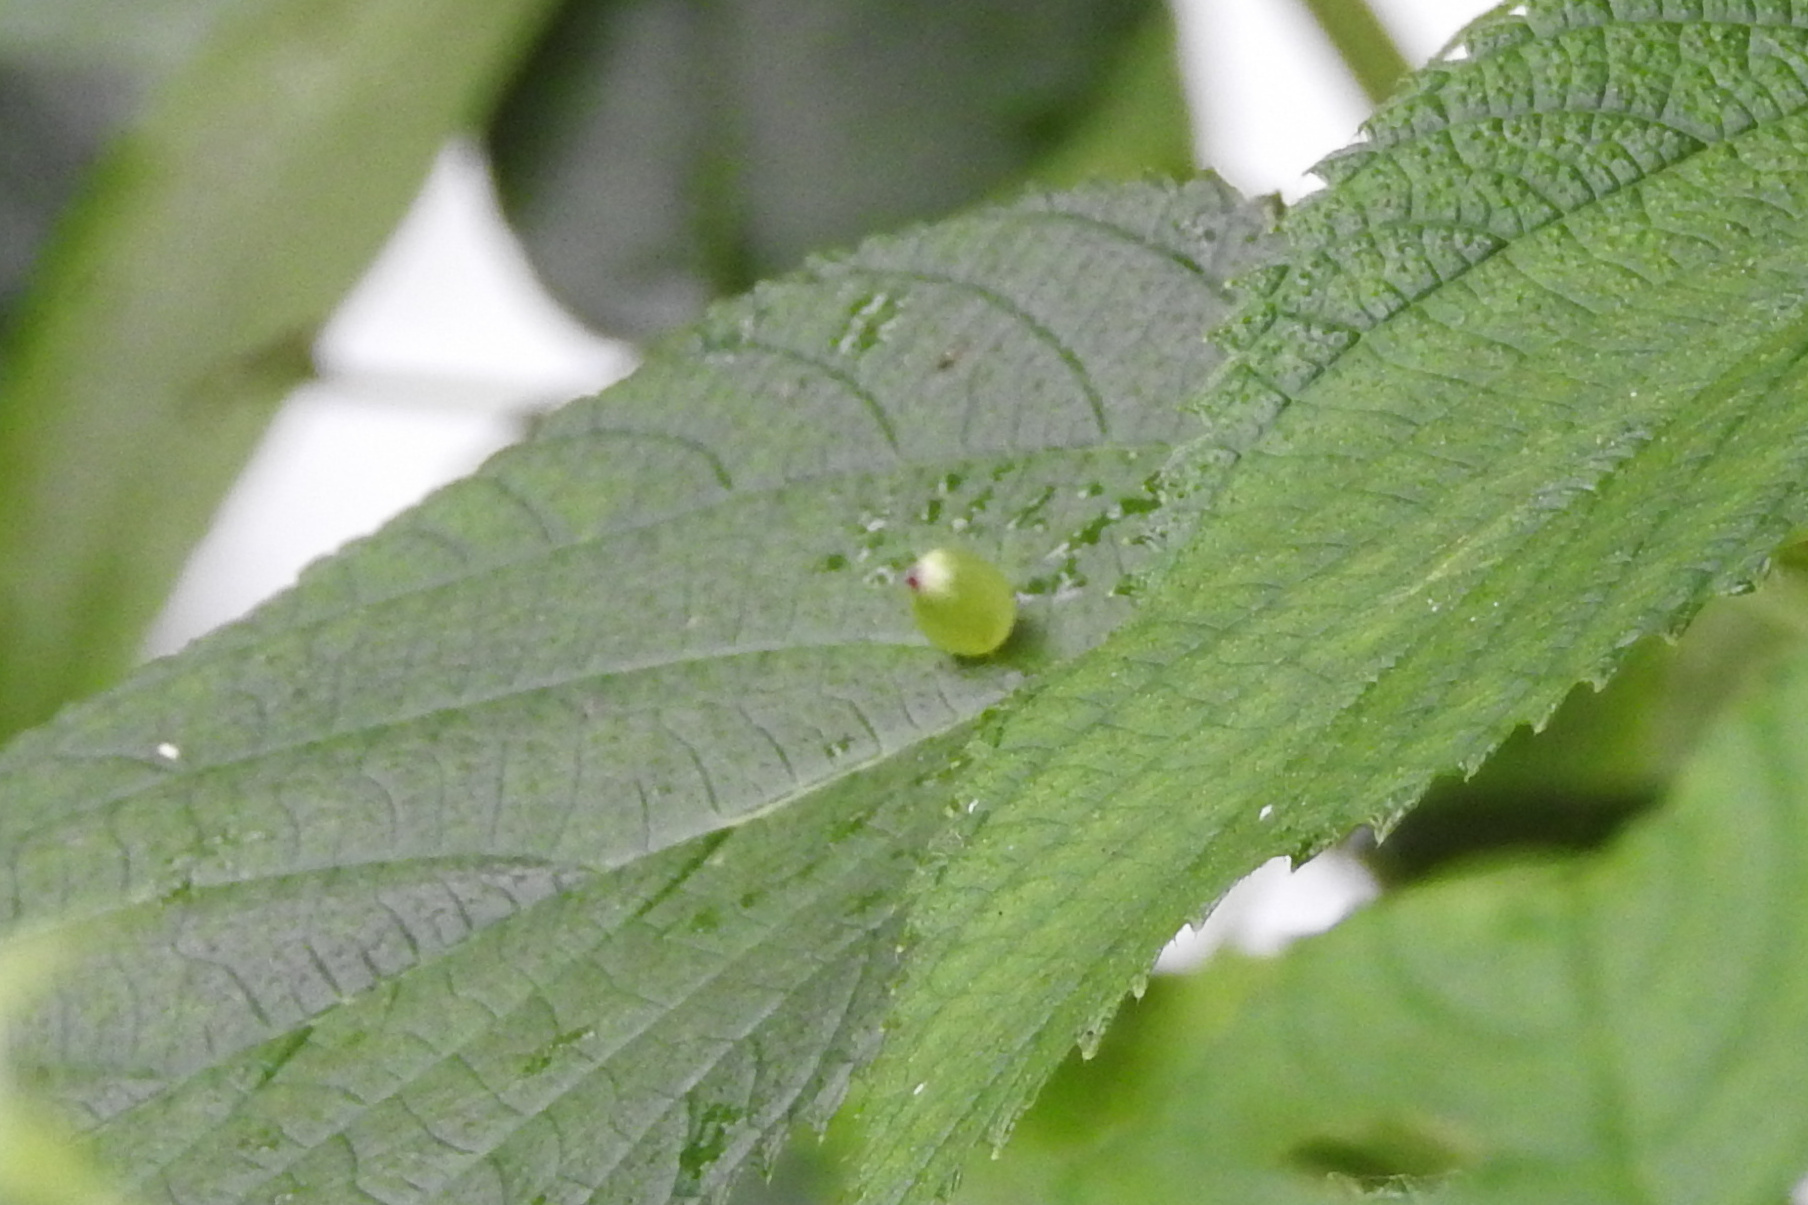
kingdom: Animalia
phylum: Arthropoda
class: Insecta
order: Diptera
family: Cecidomyiidae
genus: Dasineura
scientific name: Dasineura investita
